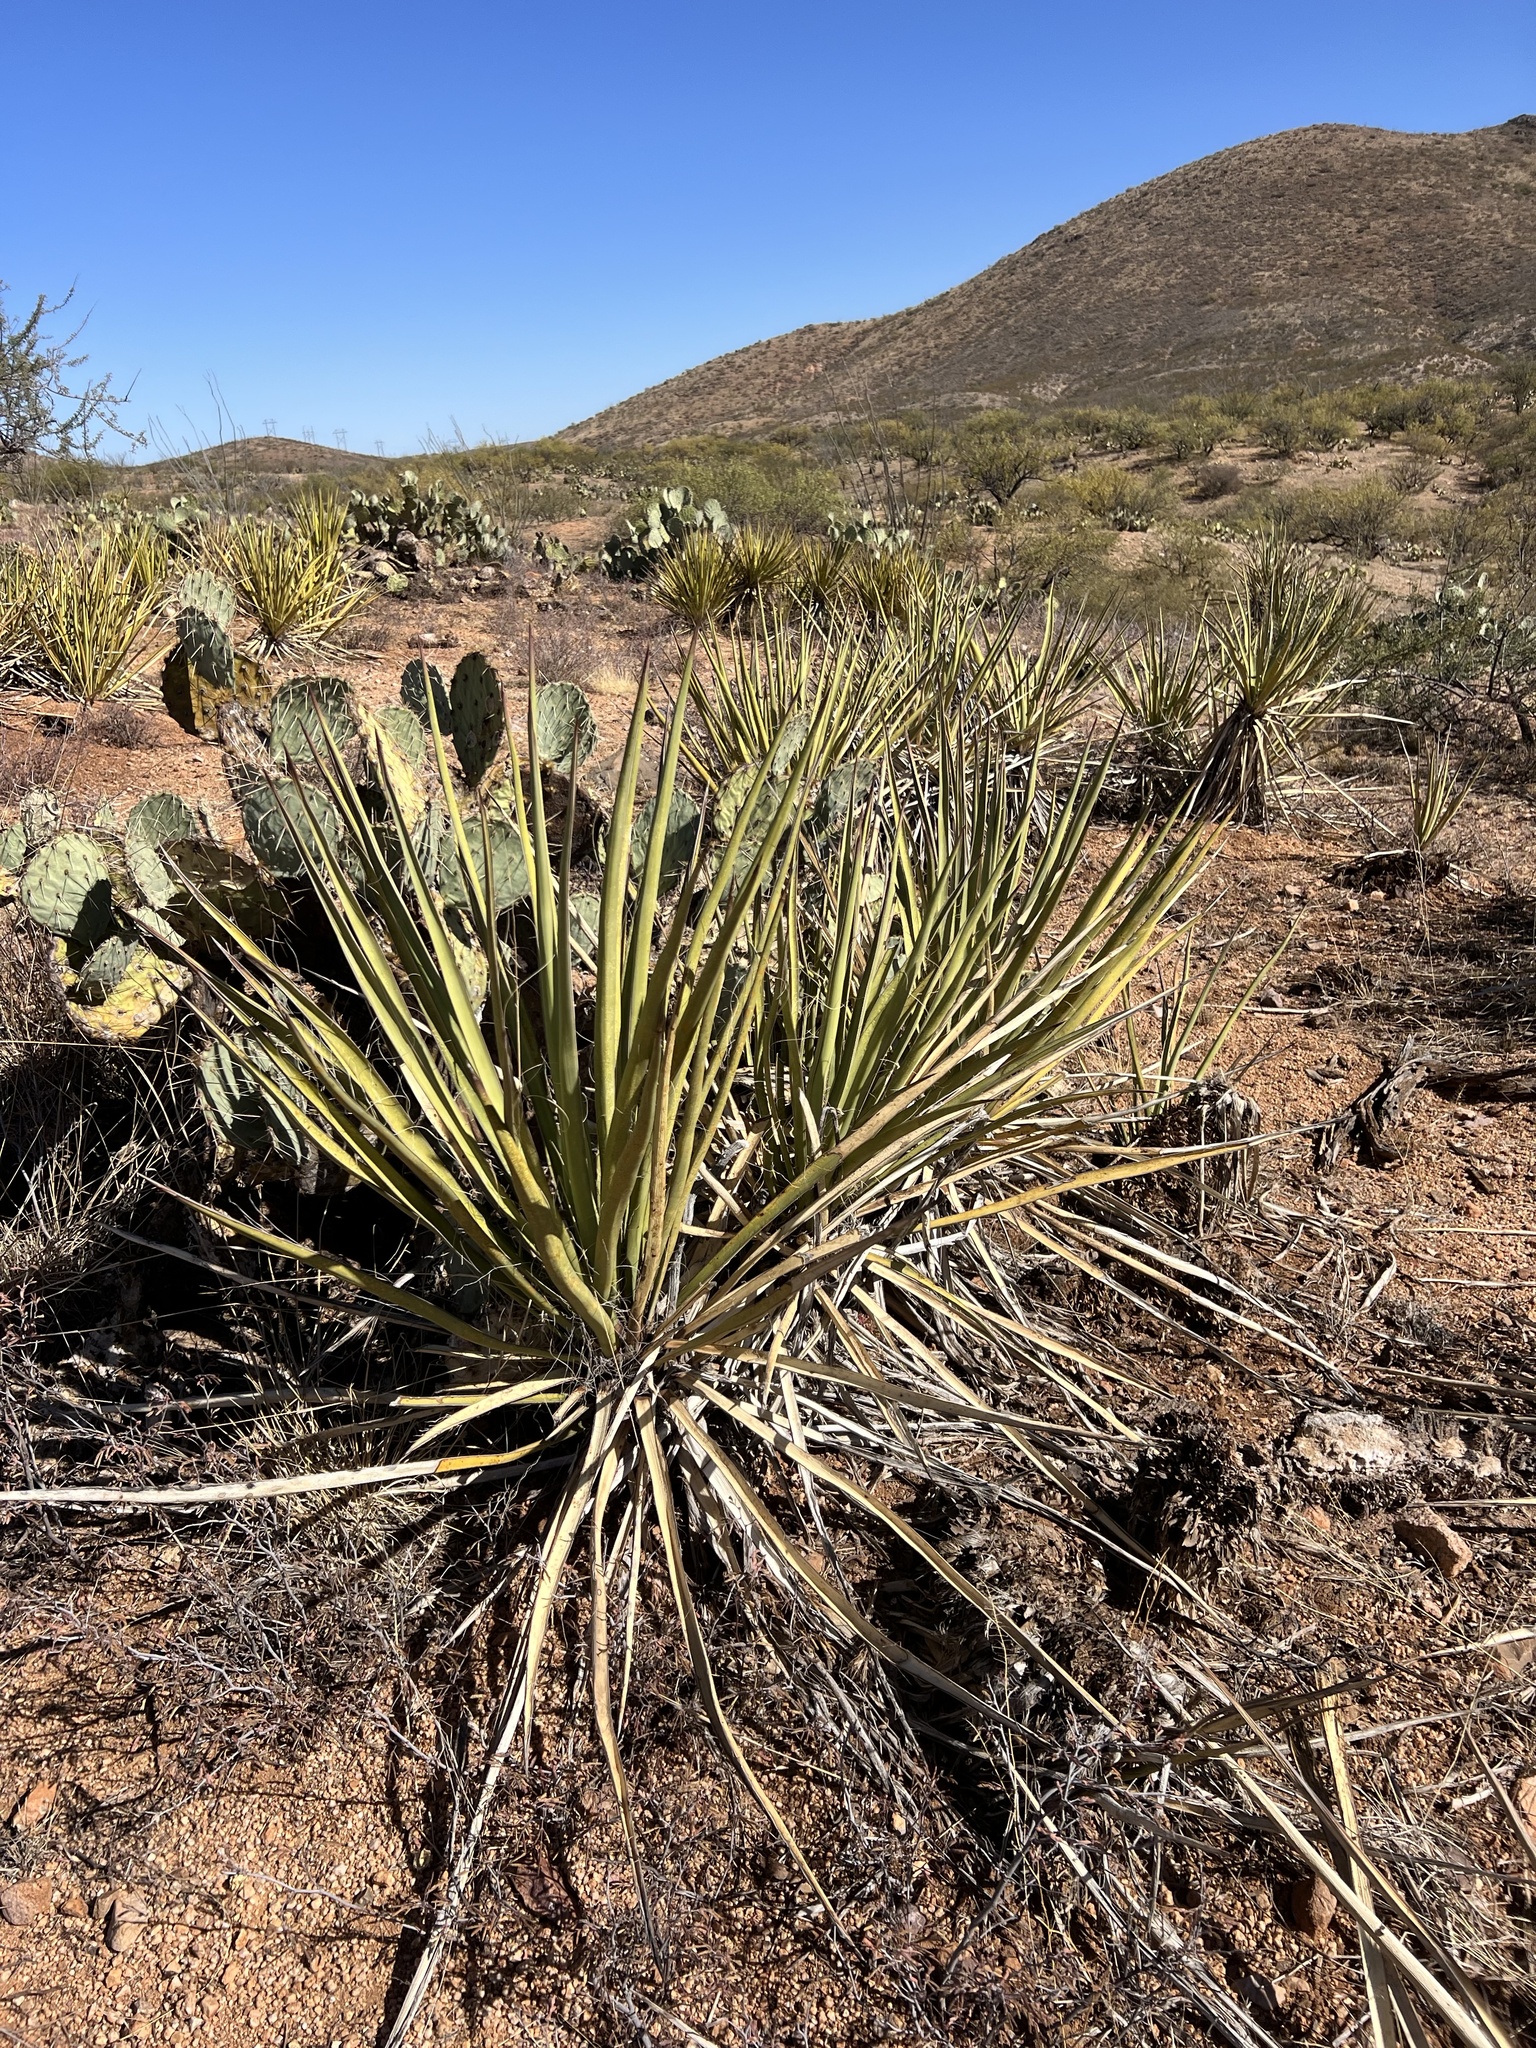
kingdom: Plantae
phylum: Tracheophyta
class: Liliopsida
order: Asparagales
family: Asparagaceae
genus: Yucca
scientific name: Yucca baccata
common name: Banana yucca
